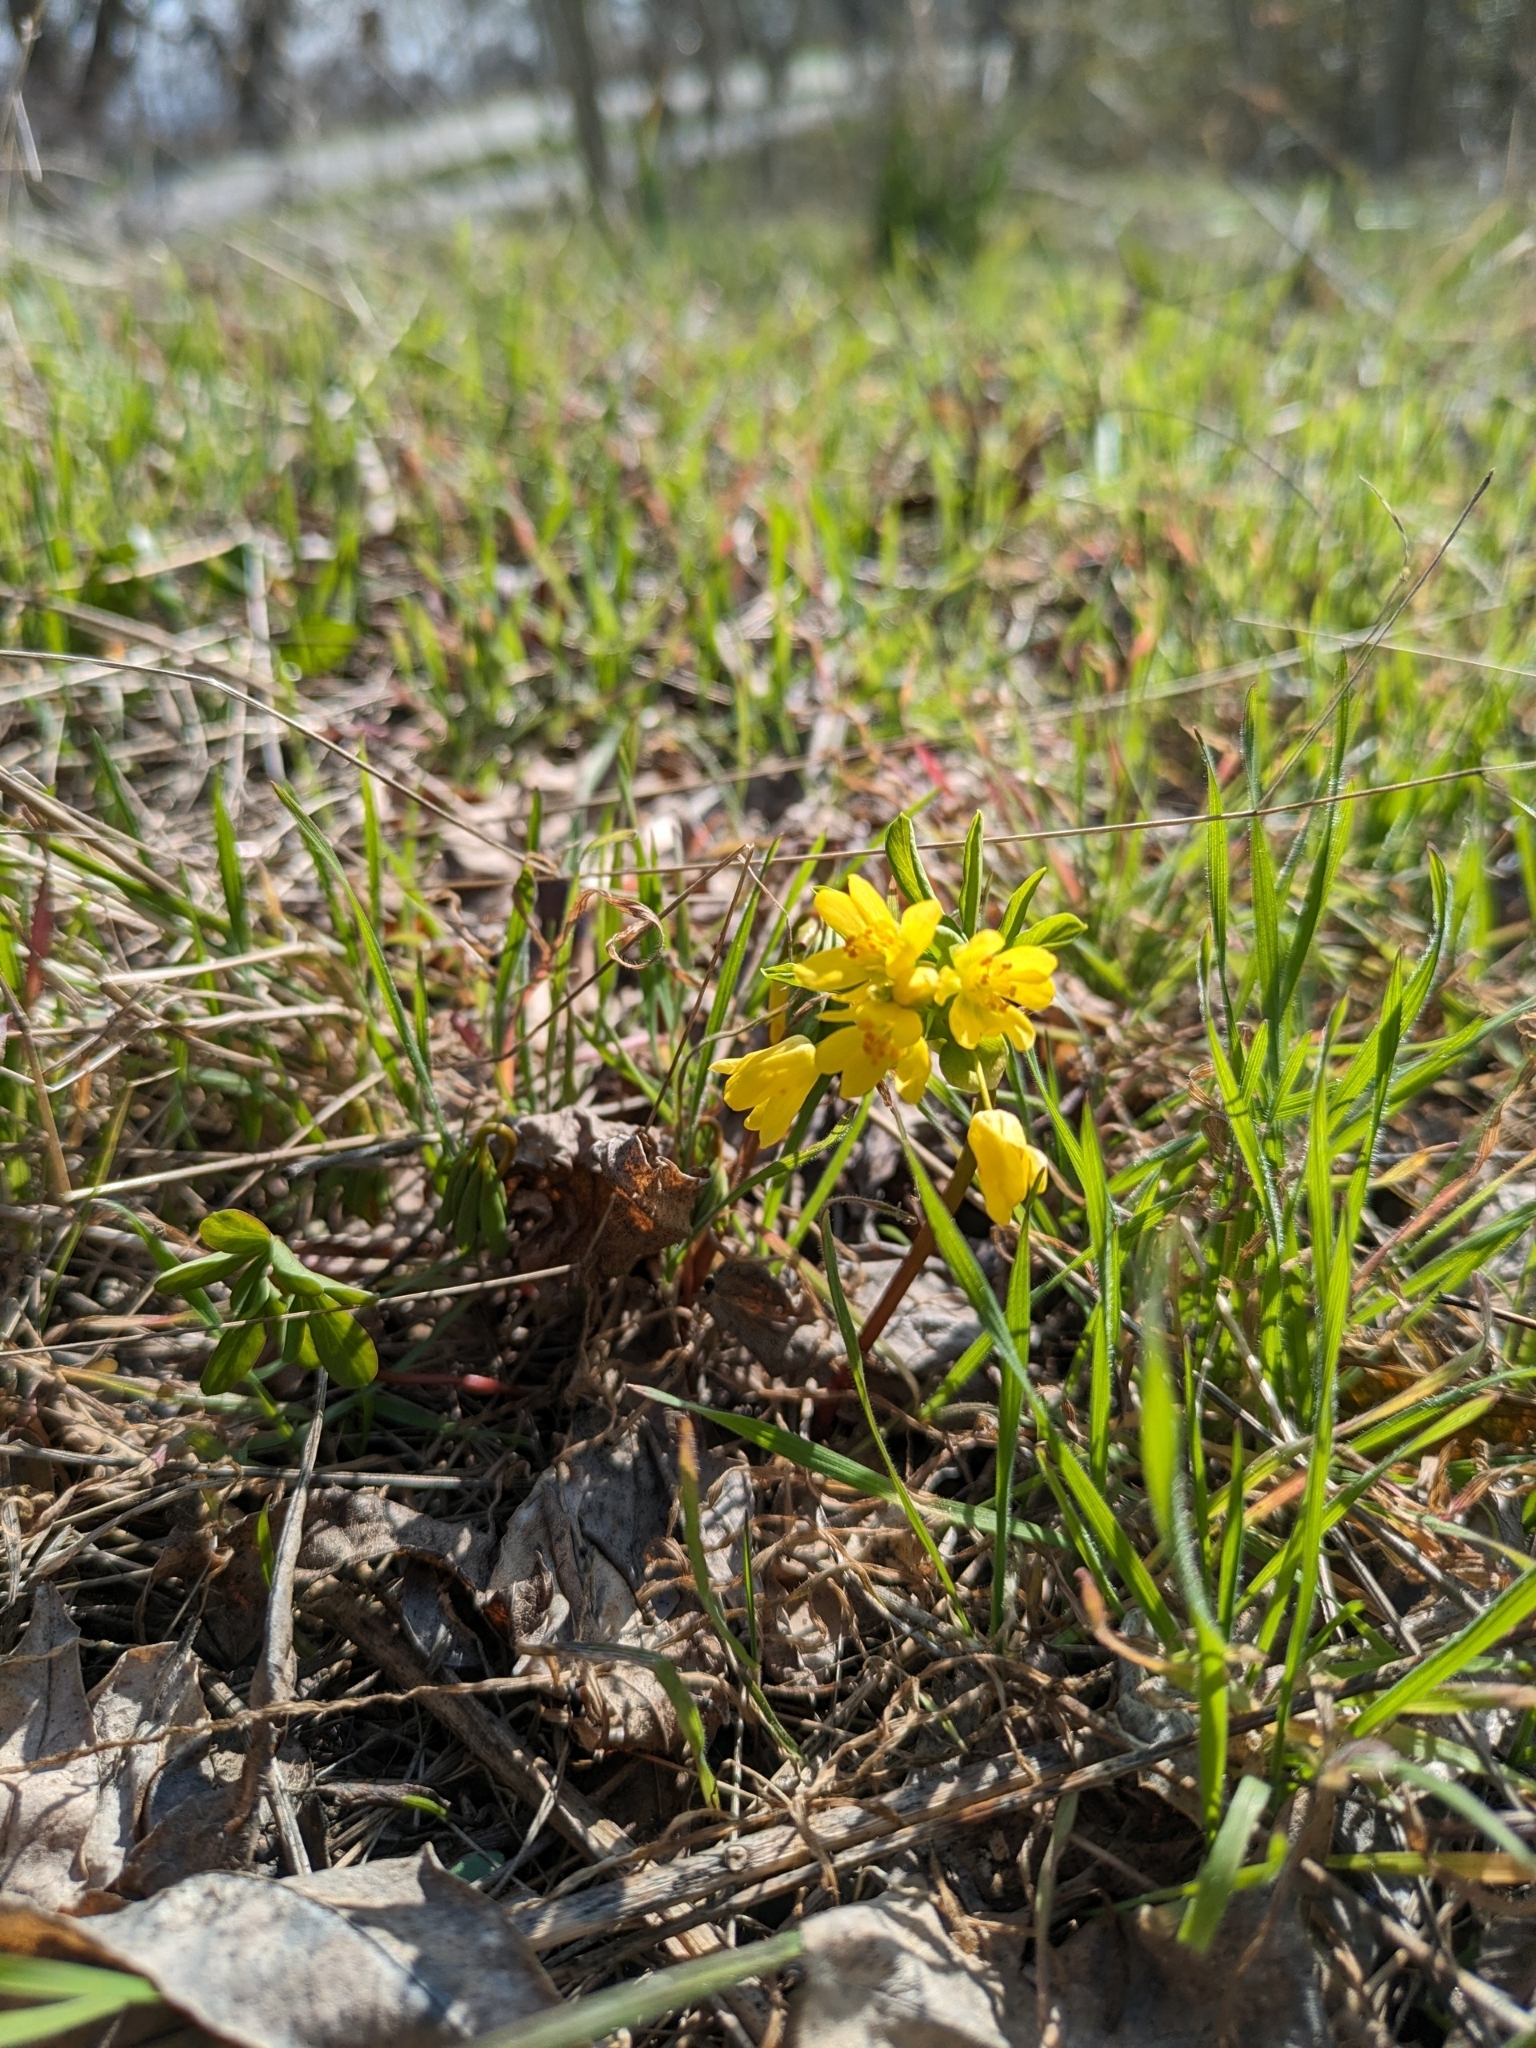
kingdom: Plantae
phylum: Tracheophyta
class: Magnoliopsida
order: Ranunculales
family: Berberidaceae
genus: Gymnospermium
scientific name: Gymnospermium odessanum
